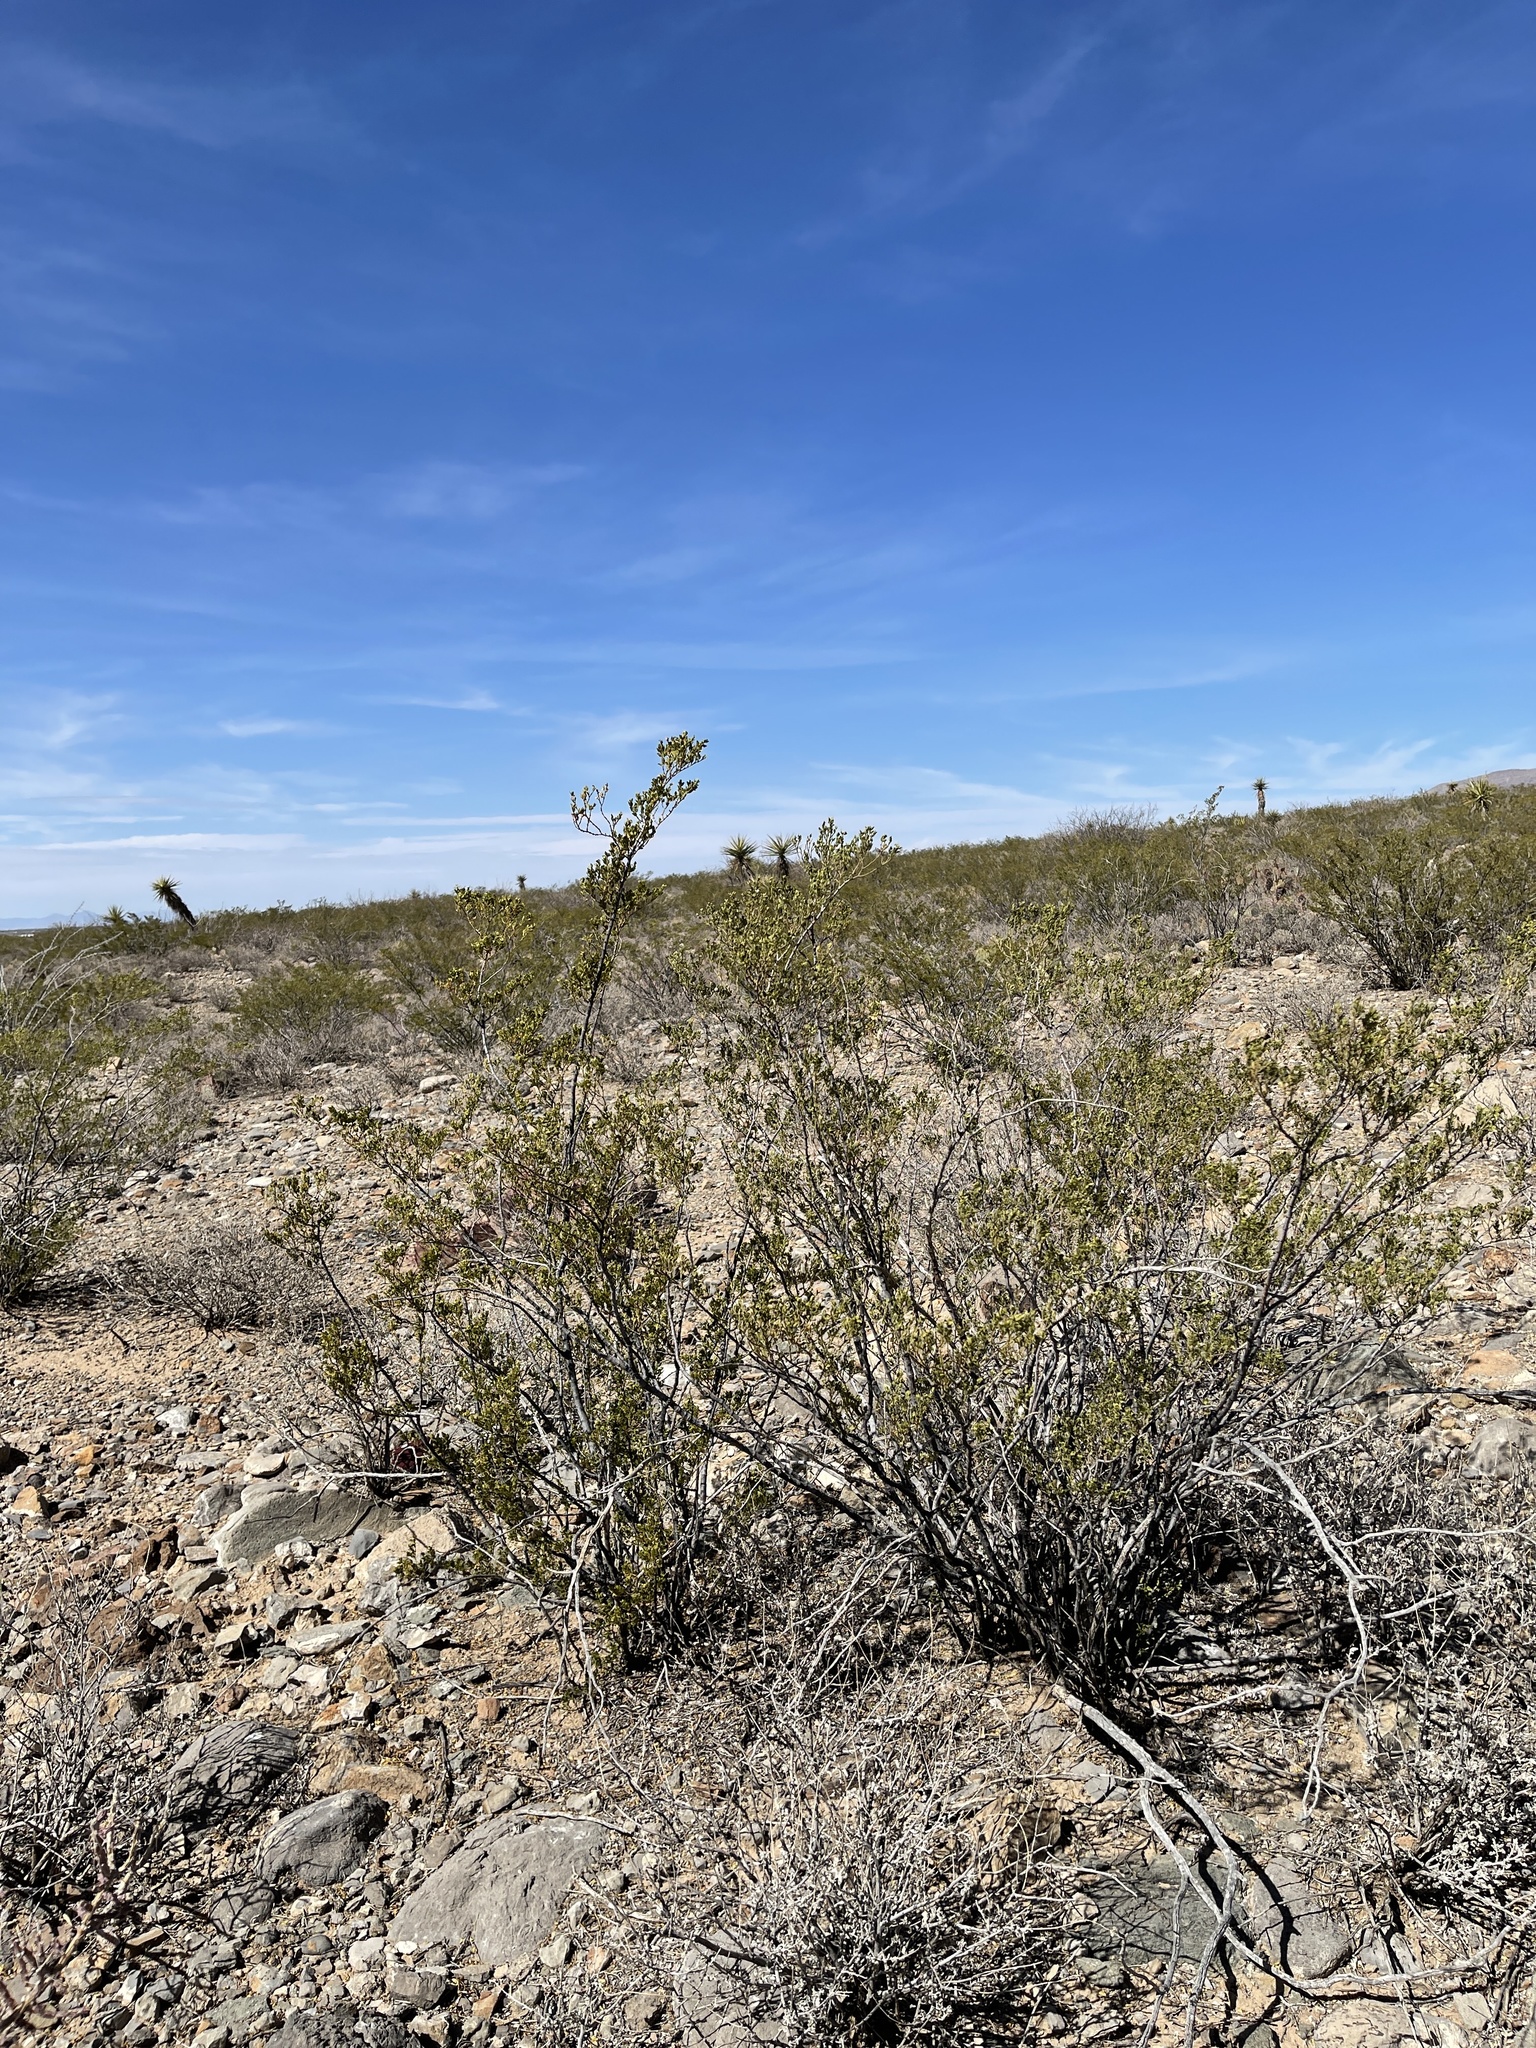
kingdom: Plantae
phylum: Tracheophyta
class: Magnoliopsida
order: Zygophyllales
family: Zygophyllaceae
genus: Larrea
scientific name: Larrea tridentata
